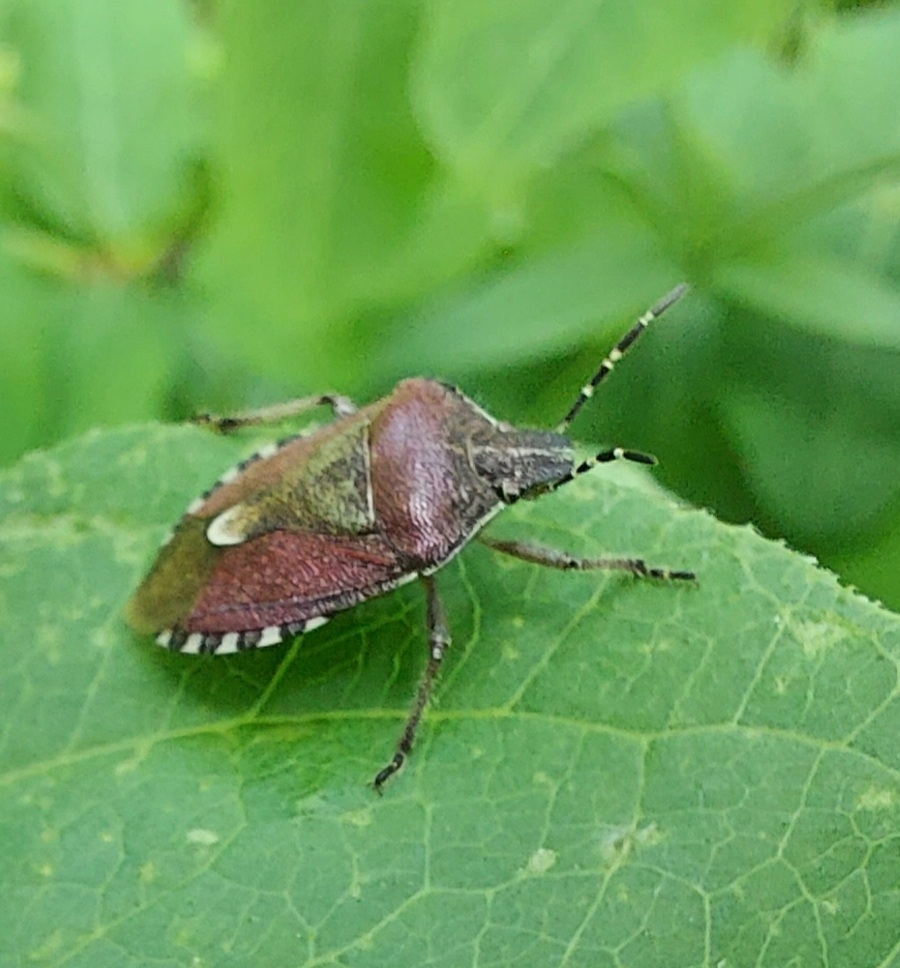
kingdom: Animalia
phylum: Arthropoda
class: Insecta
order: Hemiptera
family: Pentatomidae
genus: Dolycoris
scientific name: Dolycoris baccarum
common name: Sloe bug
